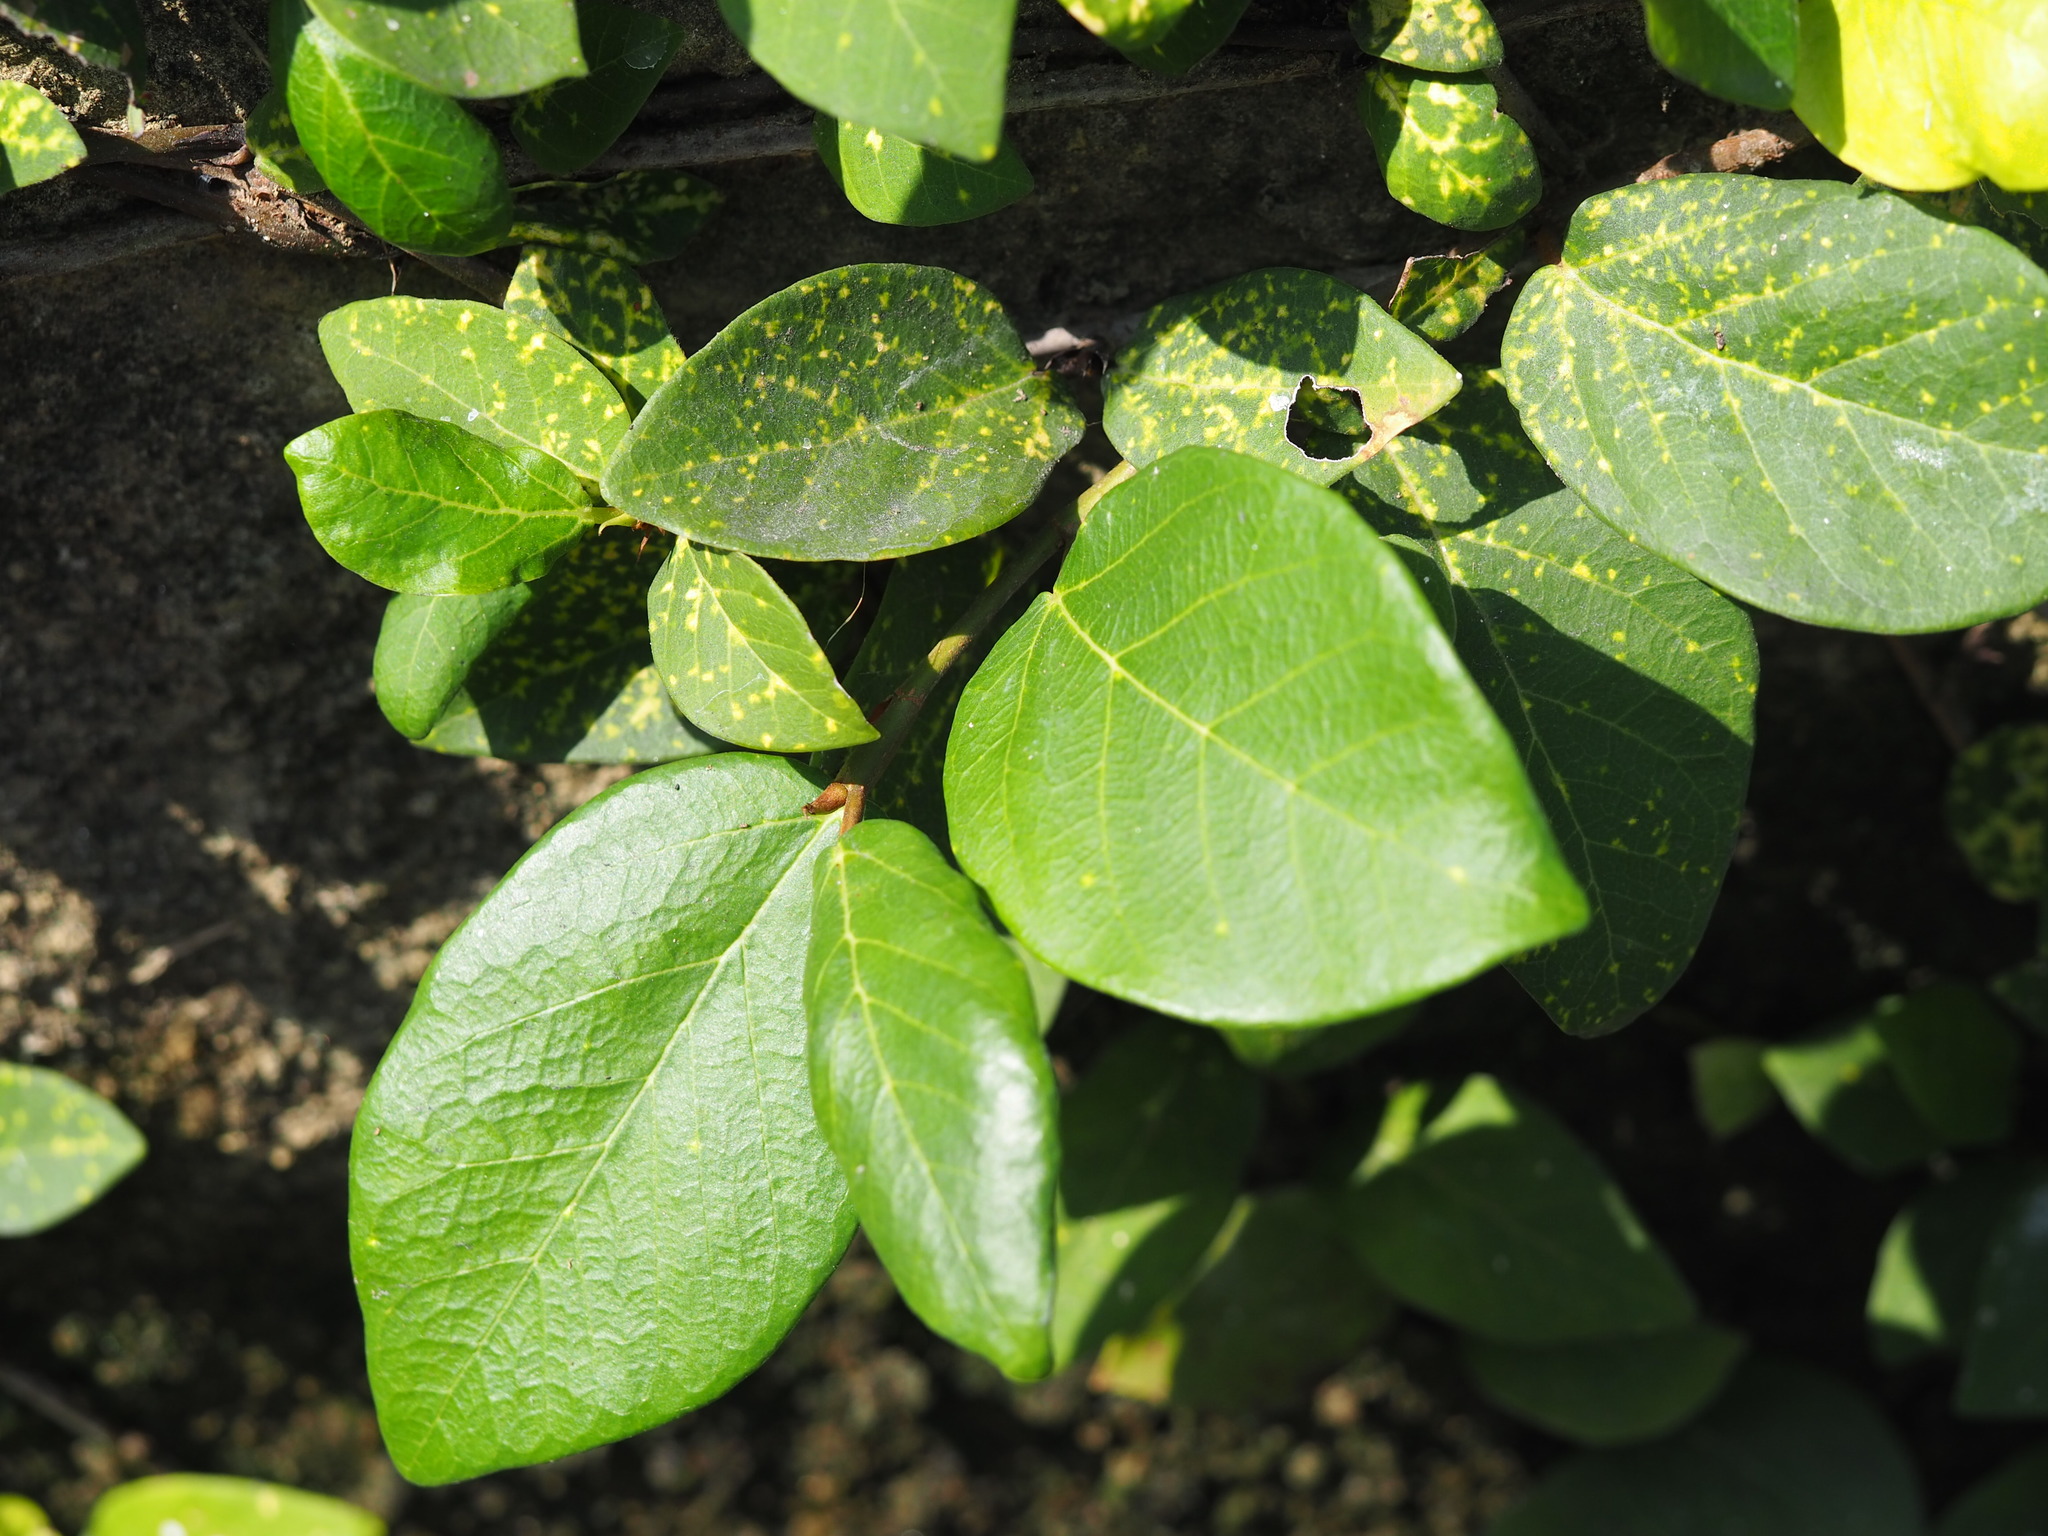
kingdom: Plantae
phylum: Tracheophyta
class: Magnoliopsida
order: Rosales
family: Moraceae
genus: Ficus
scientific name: Ficus pumila
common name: Climbingfig
